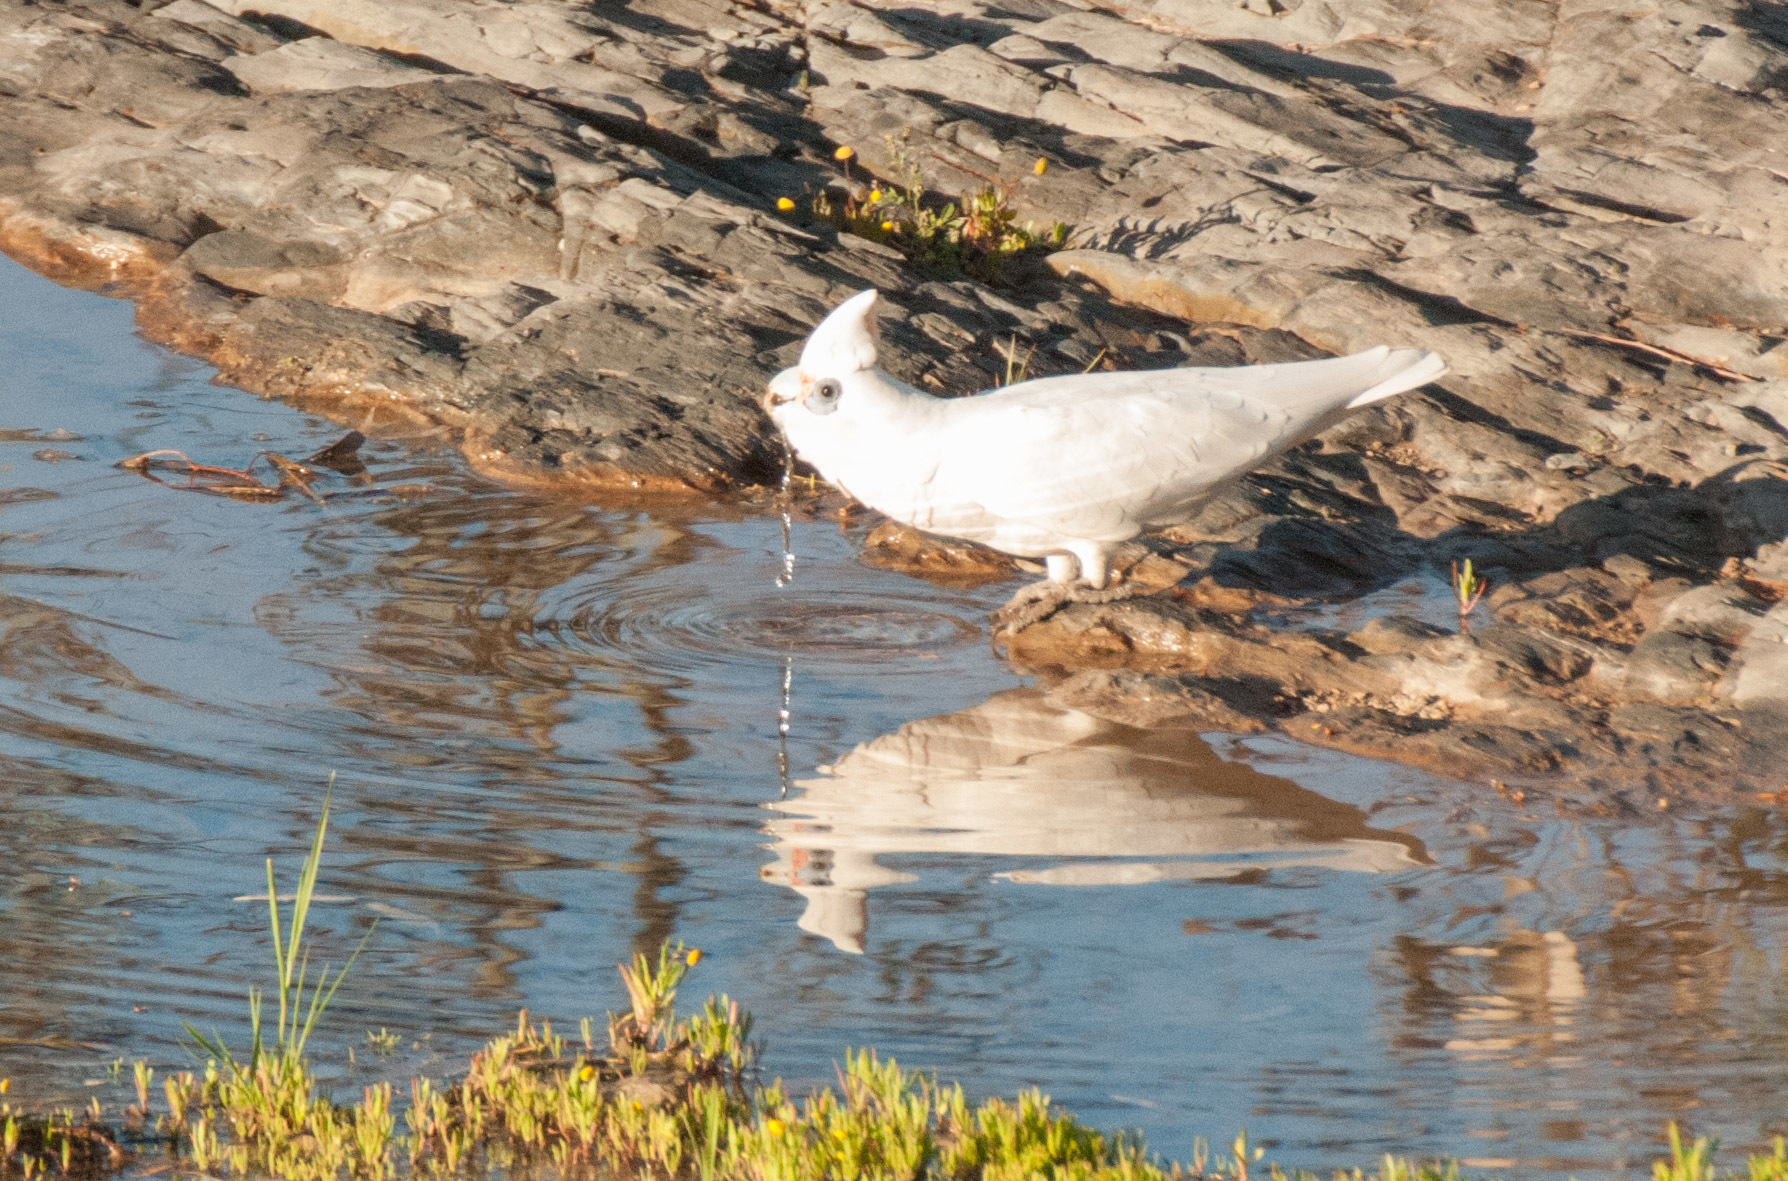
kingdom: Animalia
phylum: Chordata
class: Aves
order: Psittaciformes
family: Psittacidae
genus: Cacatua
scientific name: Cacatua sanguinea
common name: Little corella
